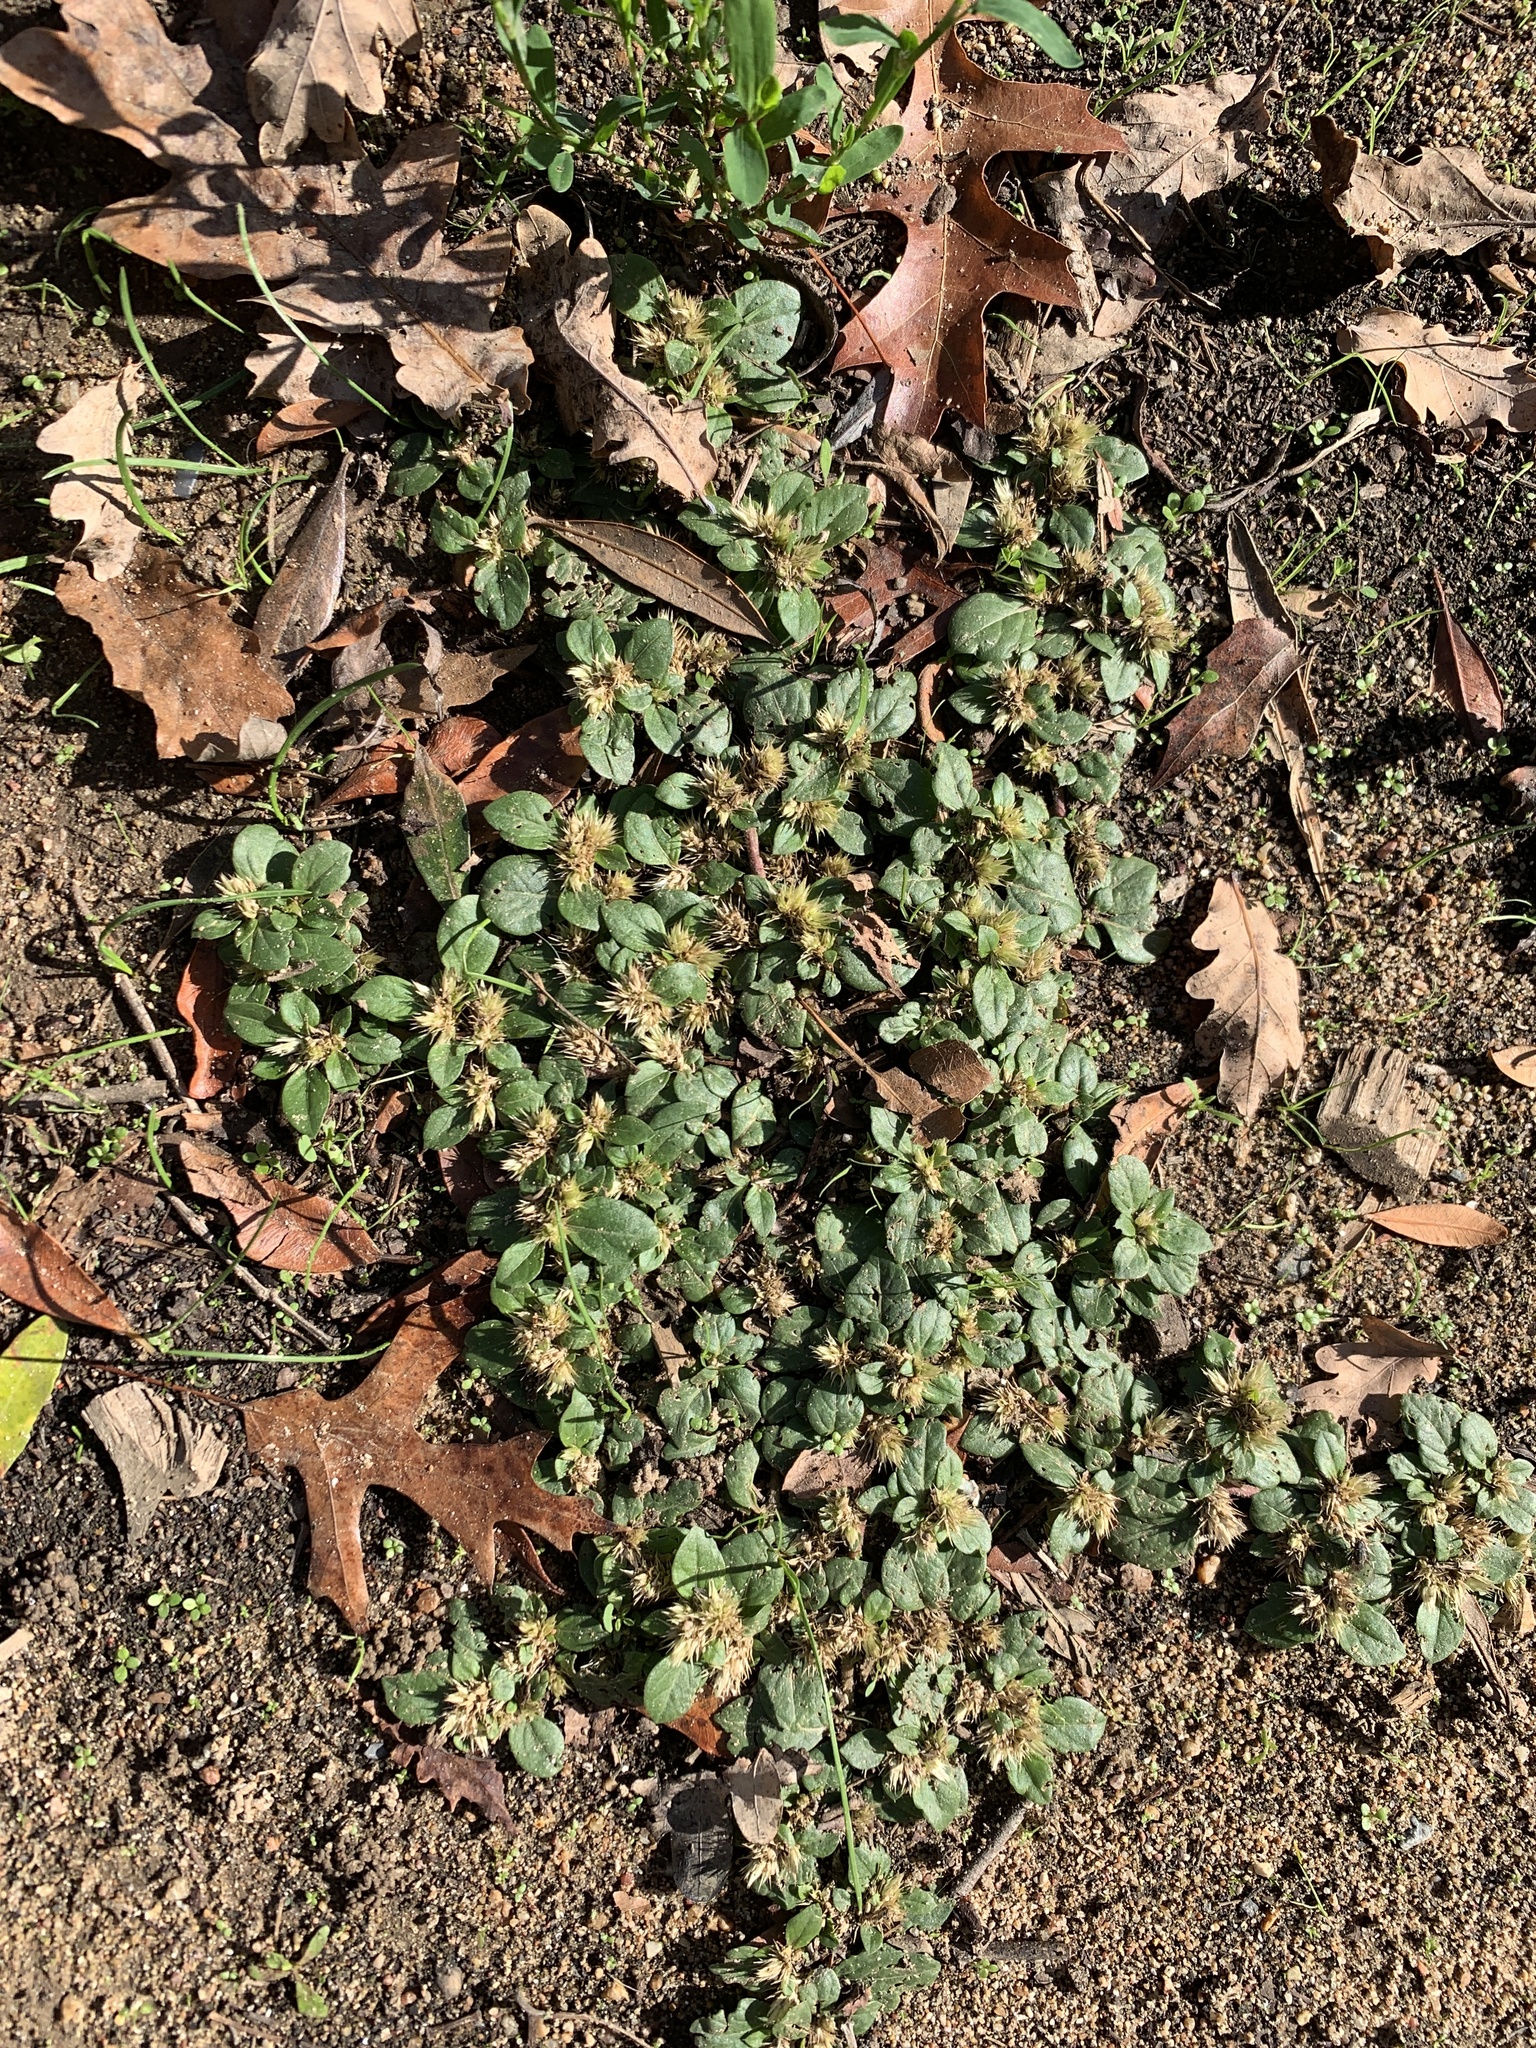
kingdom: Plantae
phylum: Tracheophyta
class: Magnoliopsida
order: Caryophyllales
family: Amaranthaceae
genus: Alternanthera
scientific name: Alternanthera pungens
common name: Khakiweed
